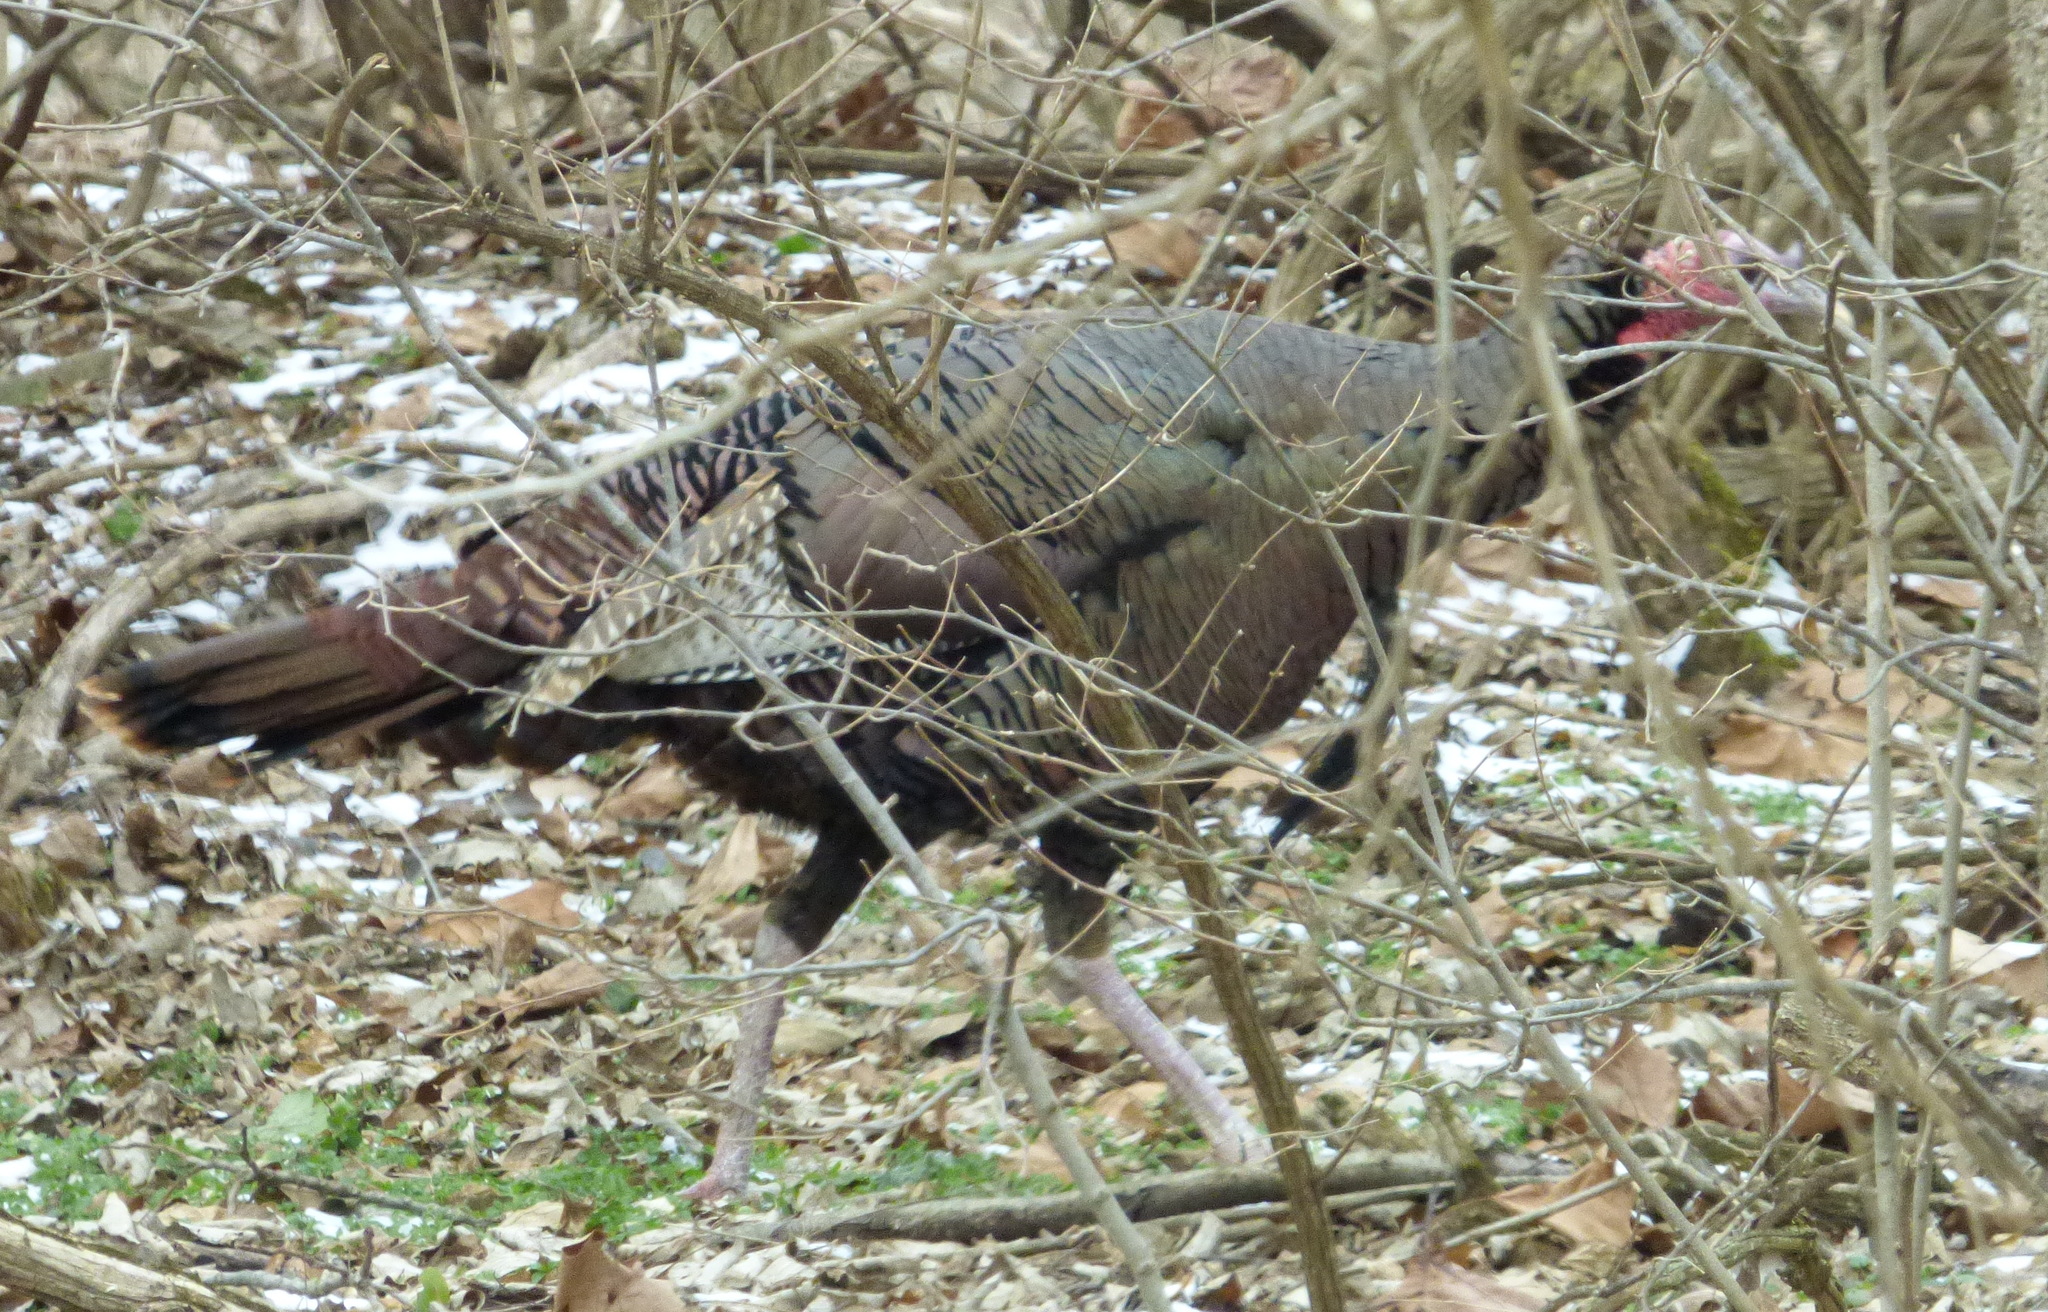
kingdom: Animalia
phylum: Chordata
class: Aves
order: Galliformes
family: Phasianidae
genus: Meleagris
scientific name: Meleagris gallopavo
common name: Wild turkey
